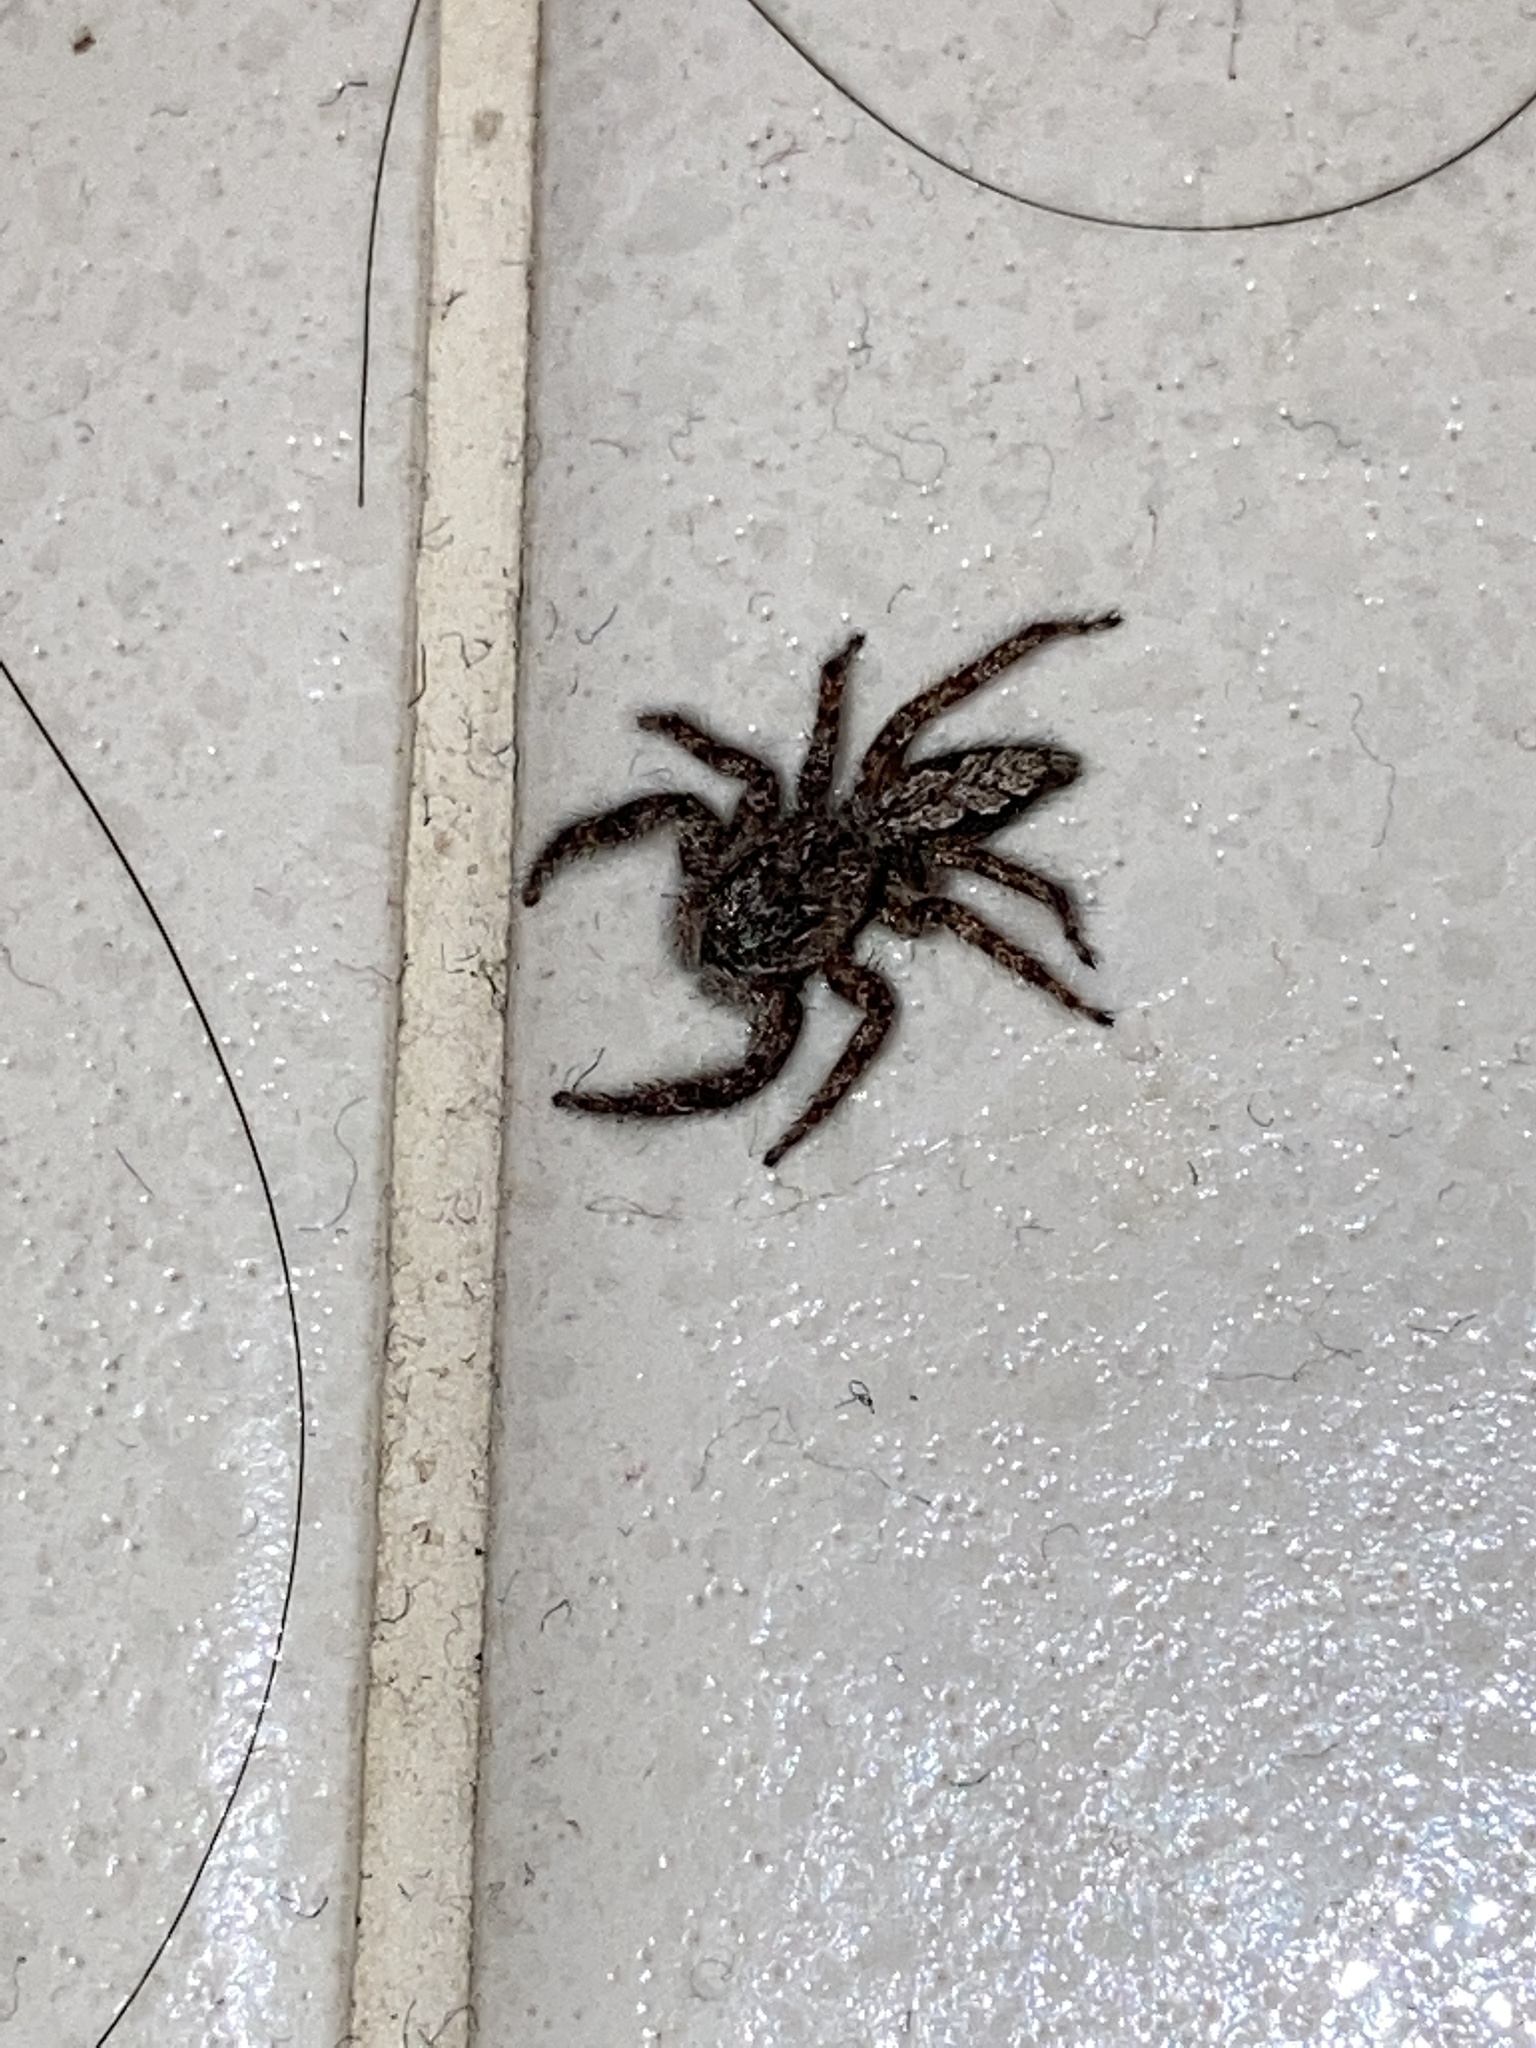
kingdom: Animalia
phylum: Arthropoda
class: Arachnida
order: Araneae
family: Salticidae
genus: Platycryptus
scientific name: Platycryptus undatus
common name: Tan jumping spider
